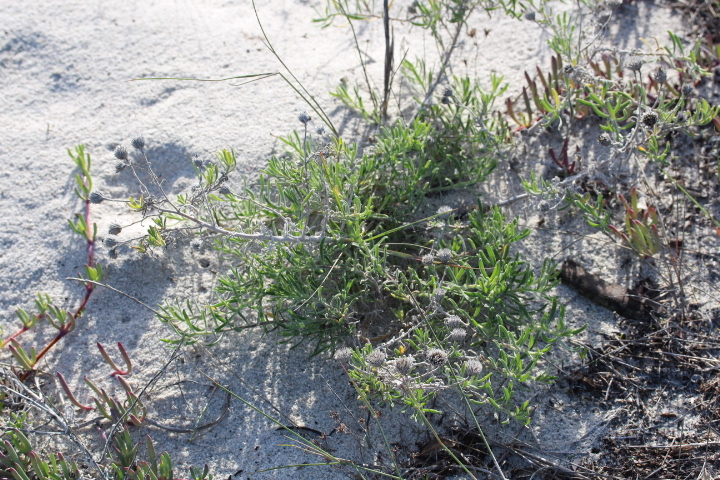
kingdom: Plantae
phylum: Tracheophyta
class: Magnoliopsida
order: Asterales
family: Asteraceae
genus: Amellus
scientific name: Amellus asteroides
